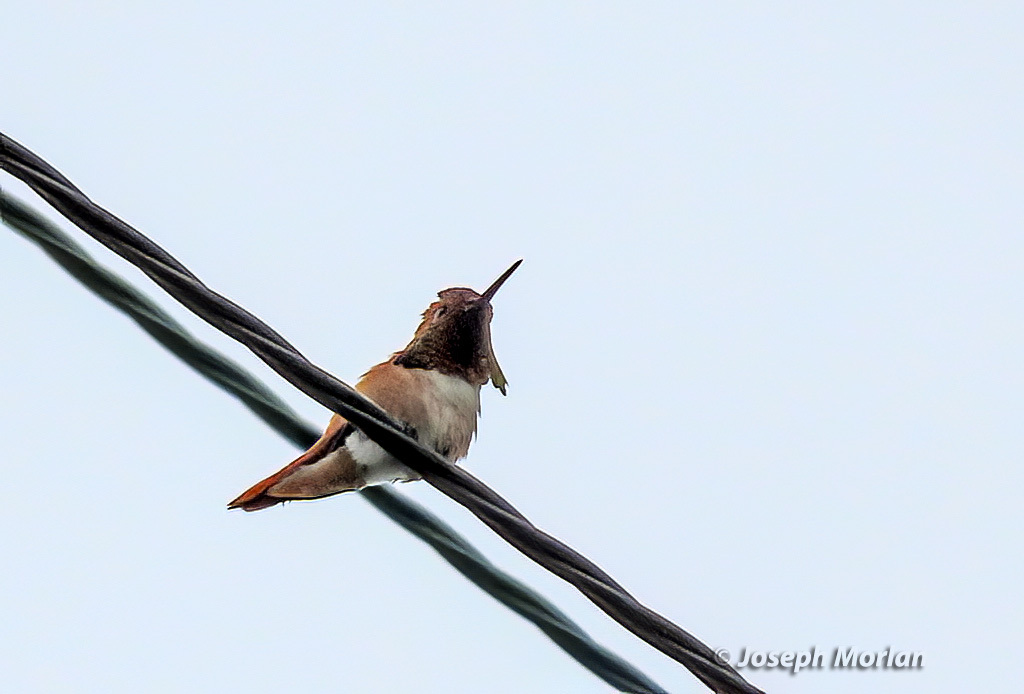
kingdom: Animalia
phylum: Chordata
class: Aves
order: Apodiformes
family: Trochilidae
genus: Selasphorus
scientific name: Selasphorus sasin
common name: Allen's hummingbird
